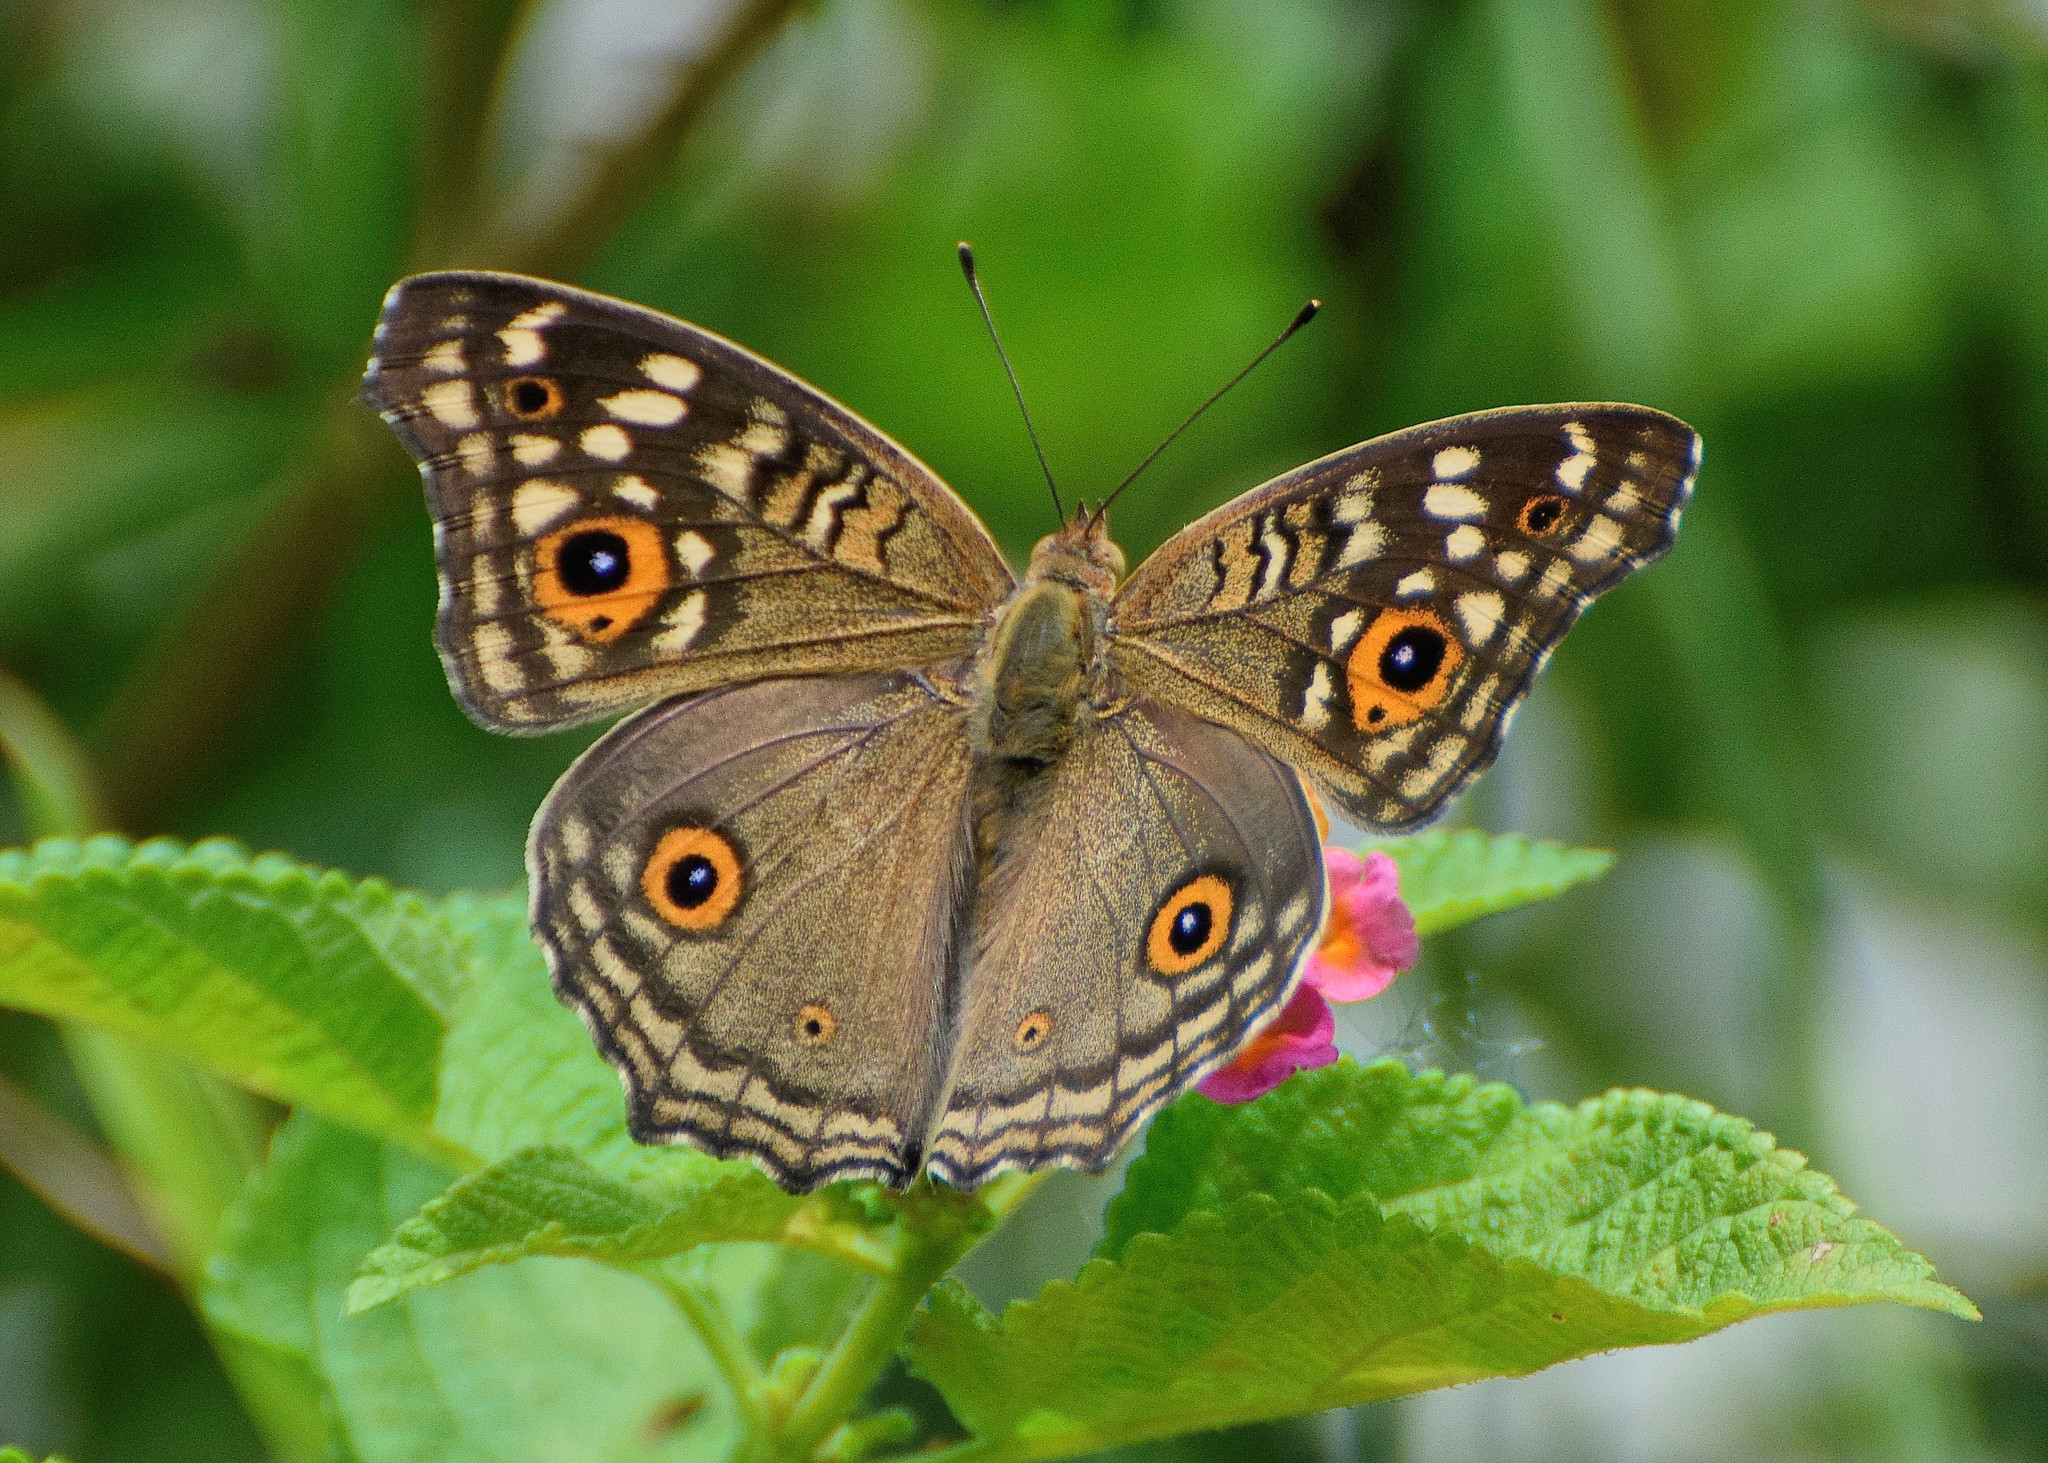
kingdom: Animalia
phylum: Arthropoda
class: Insecta
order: Lepidoptera
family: Nymphalidae
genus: Junonia
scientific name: Junonia lemonias
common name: Lemon pansy
